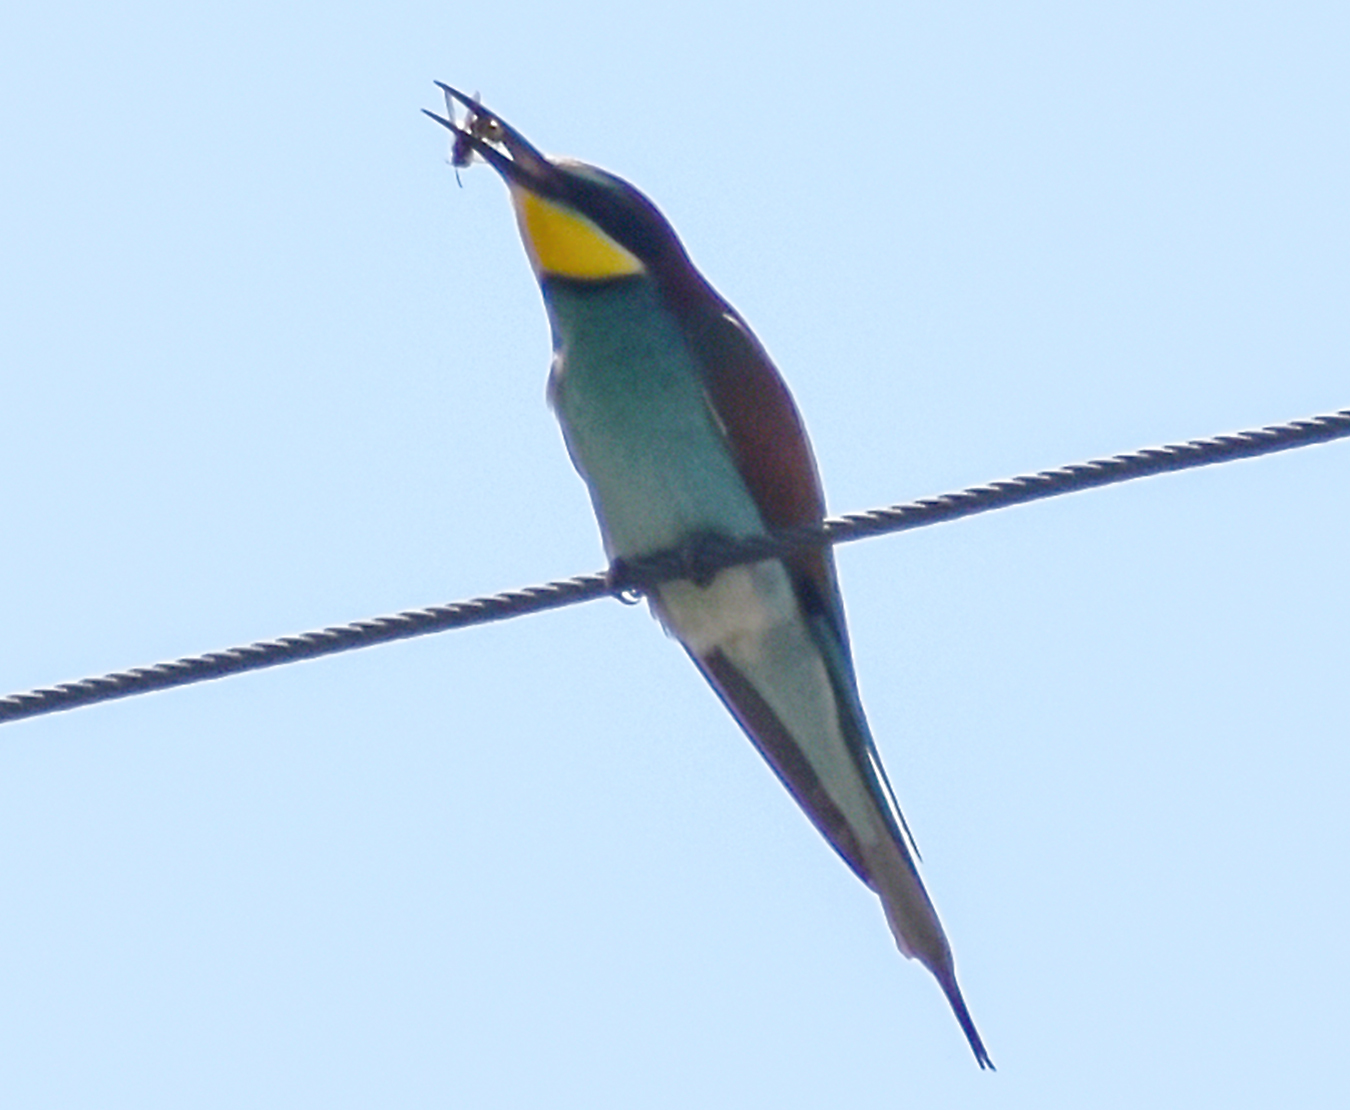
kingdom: Animalia
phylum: Chordata
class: Aves
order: Coraciiformes
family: Meropidae
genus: Merops
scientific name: Merops apiaster
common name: European bee-eater
